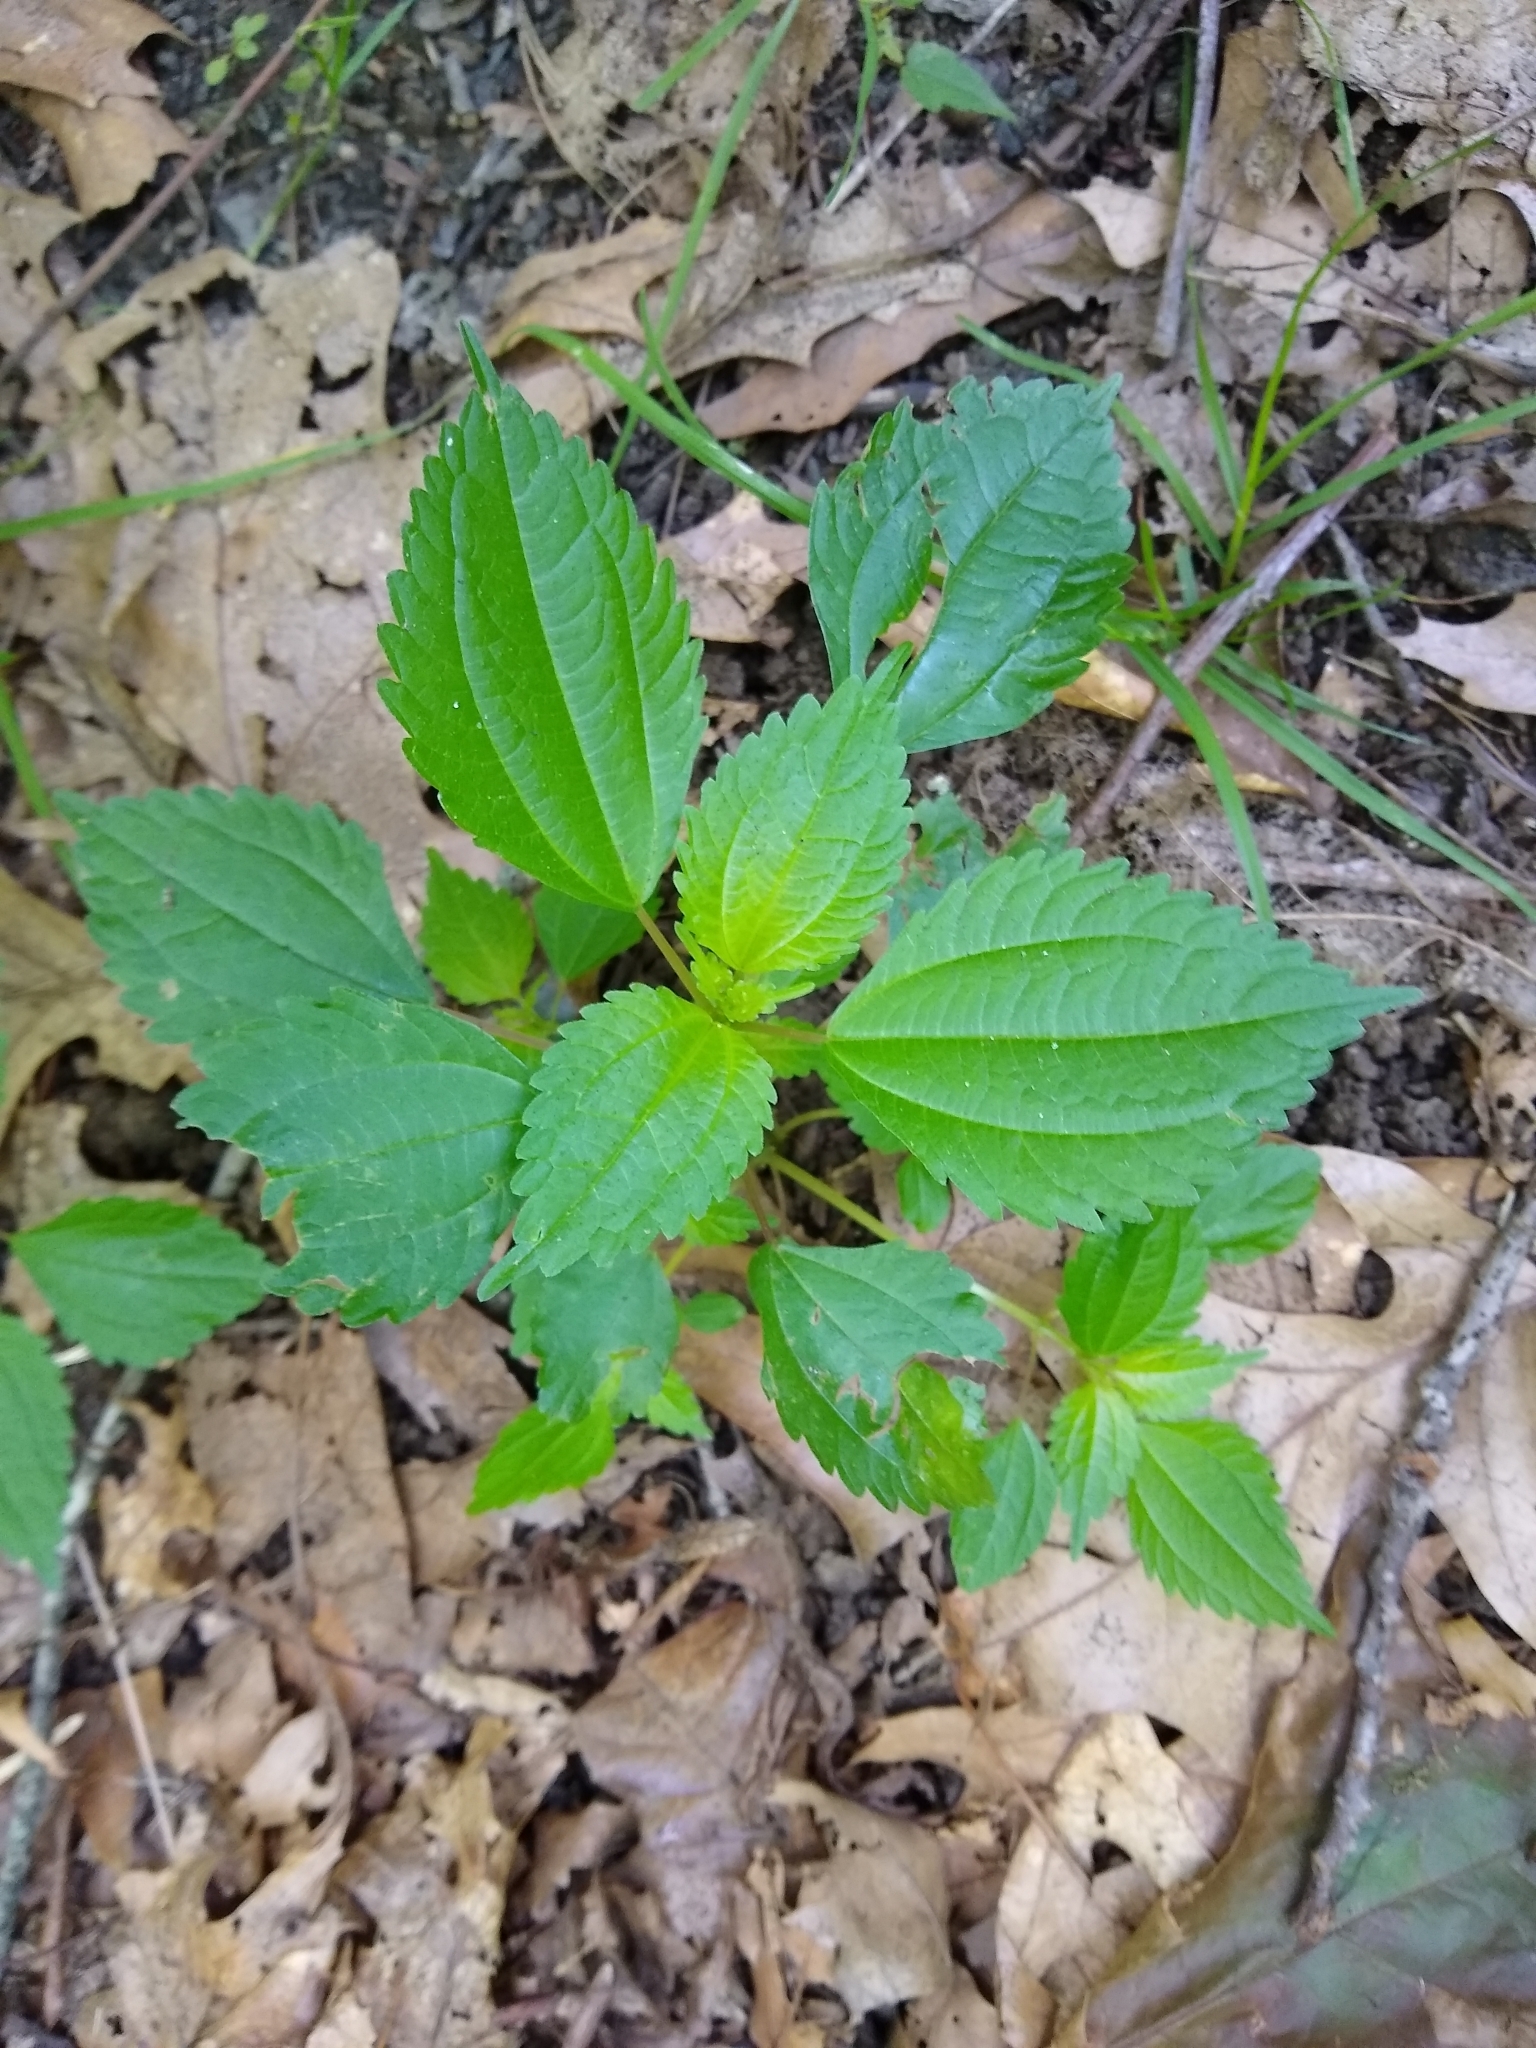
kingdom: Plantae
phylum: Tracheophyta
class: Magnoliopsida
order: Rosales
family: Urticaceae
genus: Pilea
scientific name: Pilea pumila
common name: Clearweed
